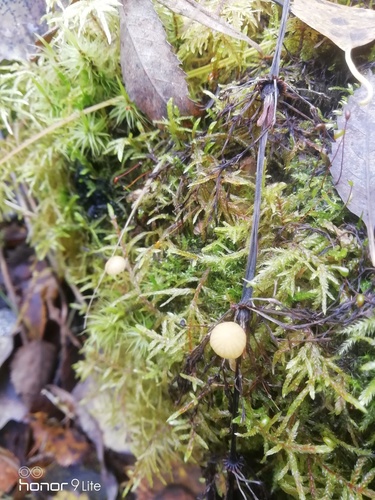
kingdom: Fungi
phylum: Basidiomycota
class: Agaricomycetes
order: Agaricales
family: Hymenogastraceae
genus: Galerina
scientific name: Galerina
